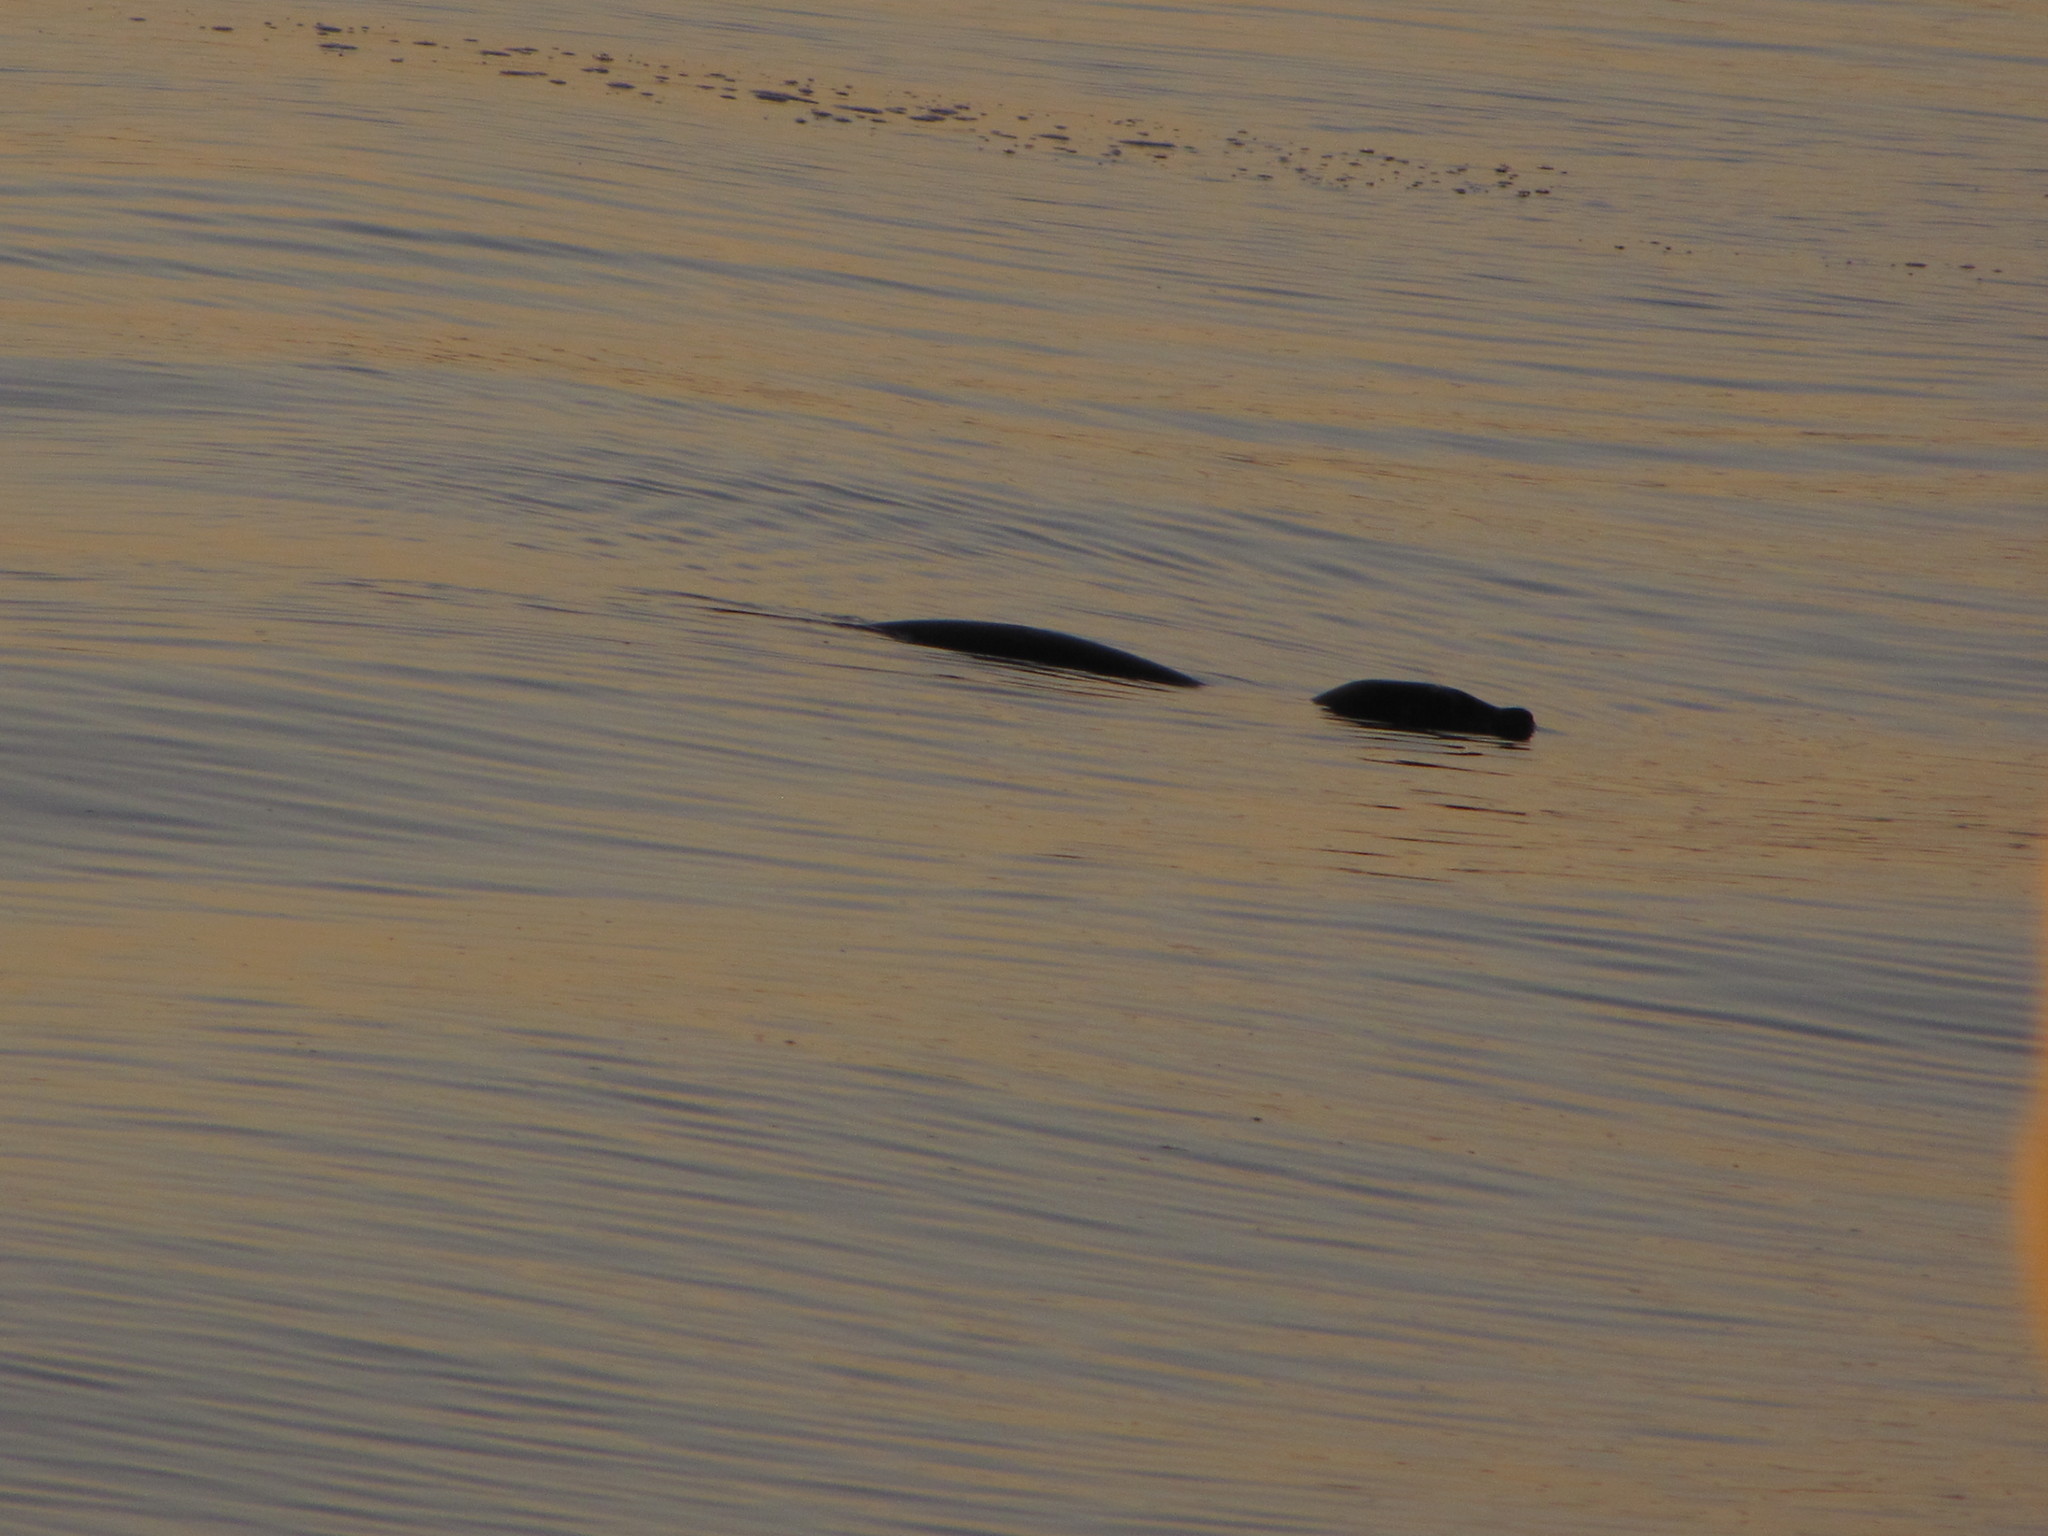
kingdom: Animalia
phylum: Chordata
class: Mammalia
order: Carnivora
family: Phocidae
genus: Phoca
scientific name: Phoca vitulina
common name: Harbor seal
